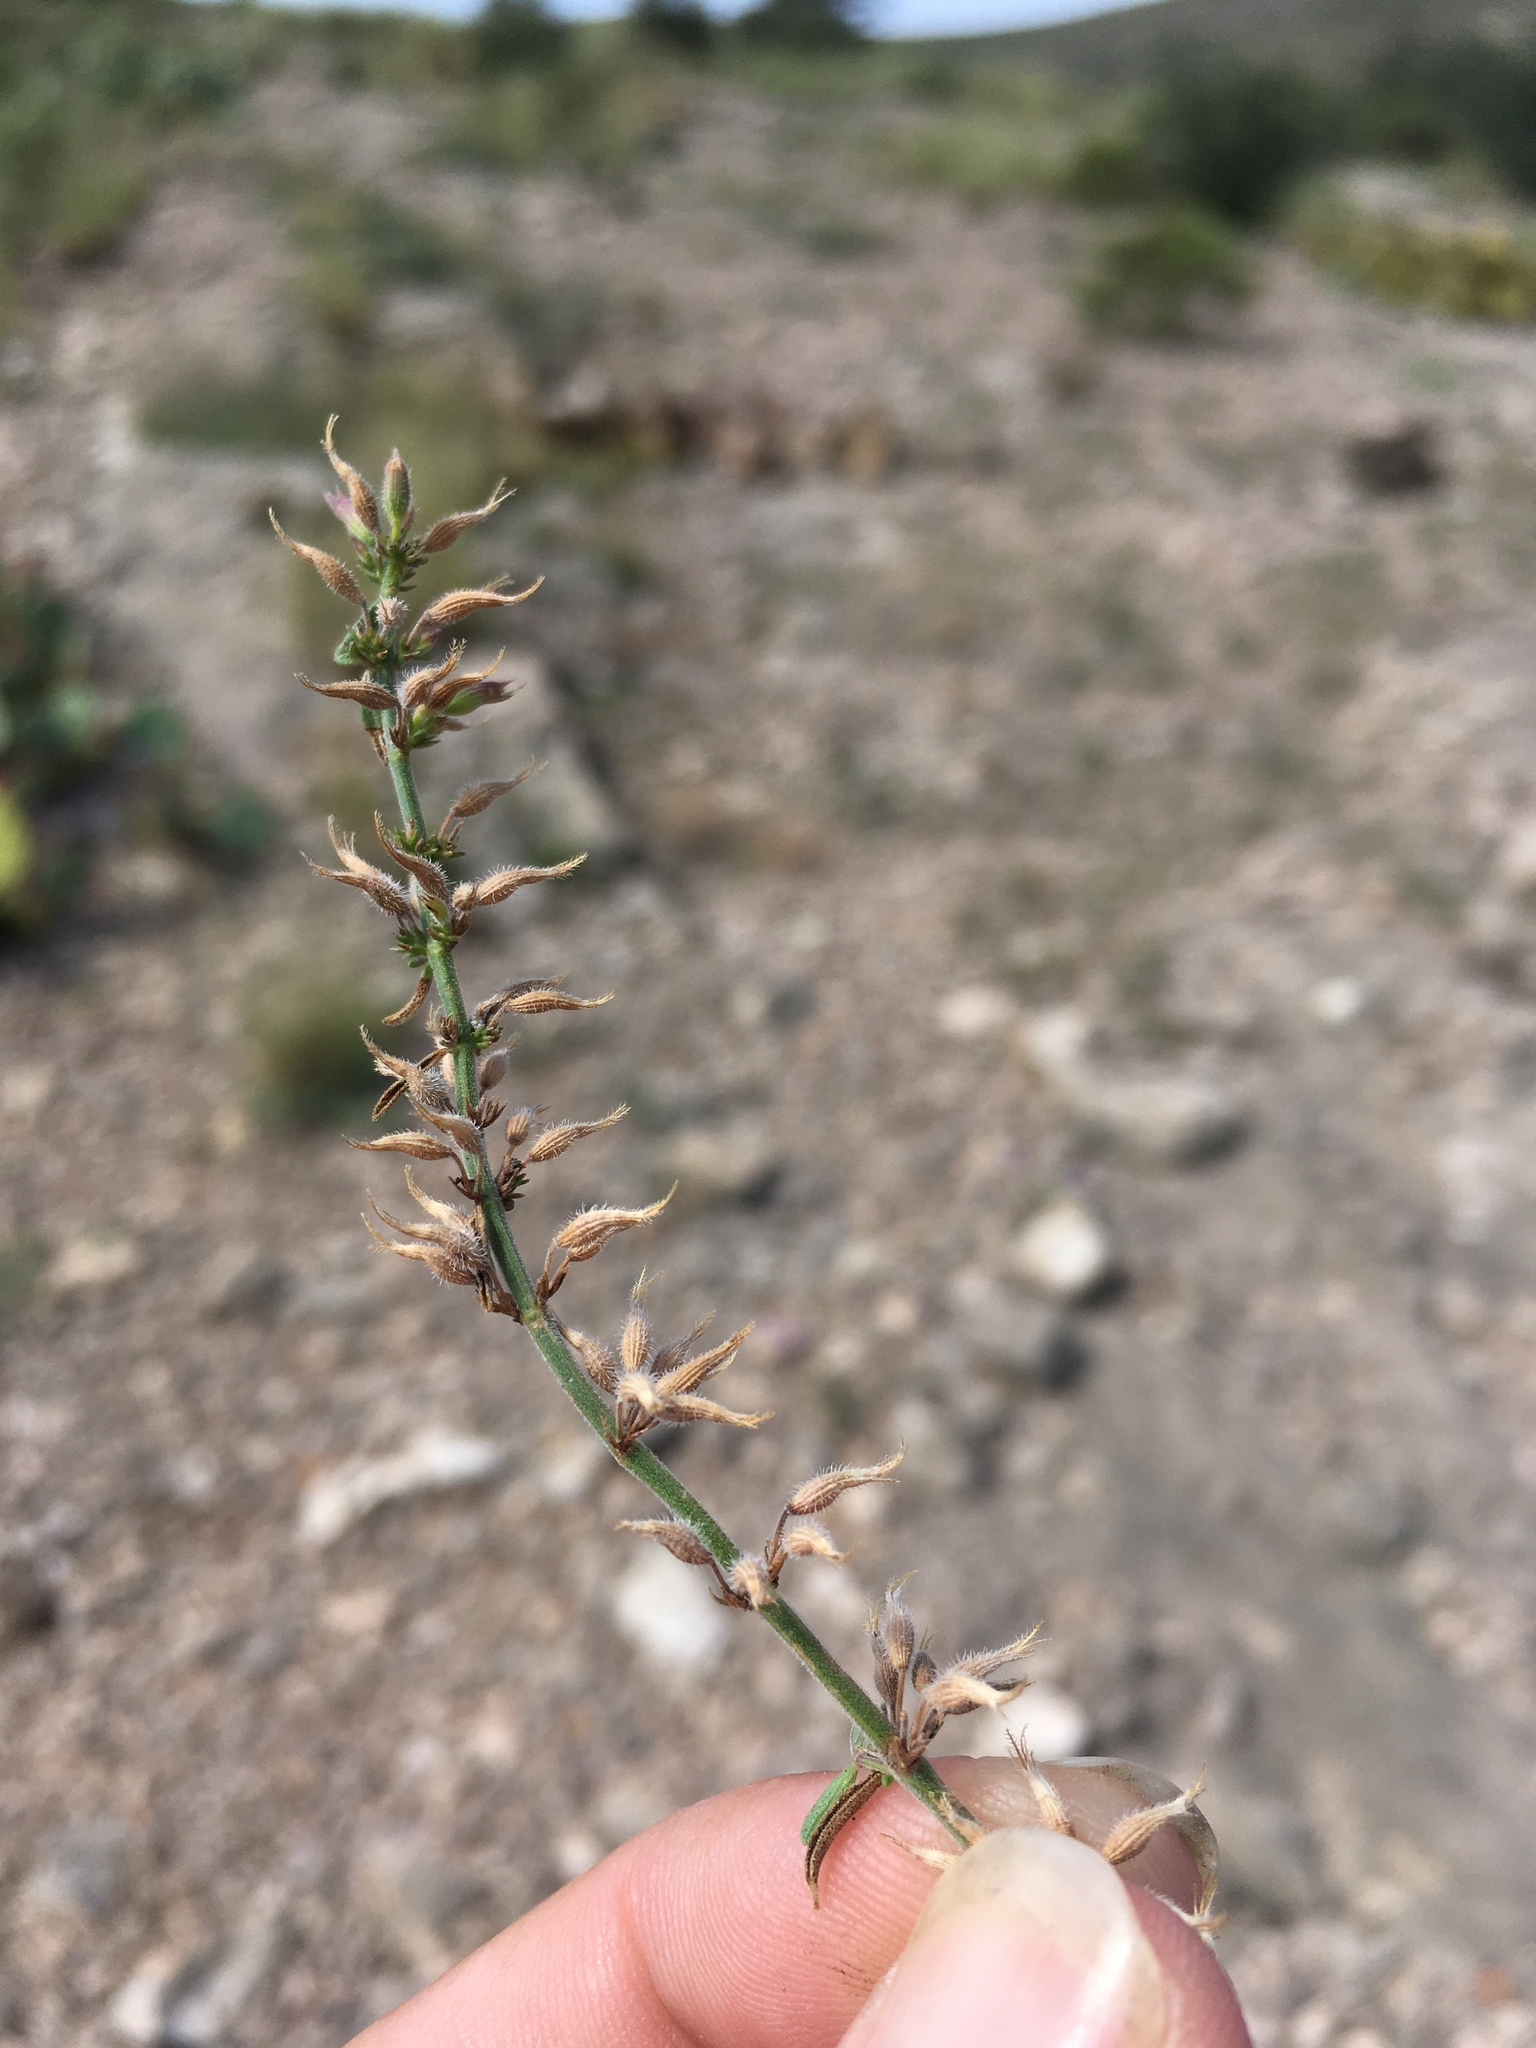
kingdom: Plantae
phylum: Tracheophyta
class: Magnoliopsida
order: Lamiales
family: Lamiaceae
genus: Hedeoma
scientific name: Hedeoma drummondii
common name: New mexico pennyroyal
